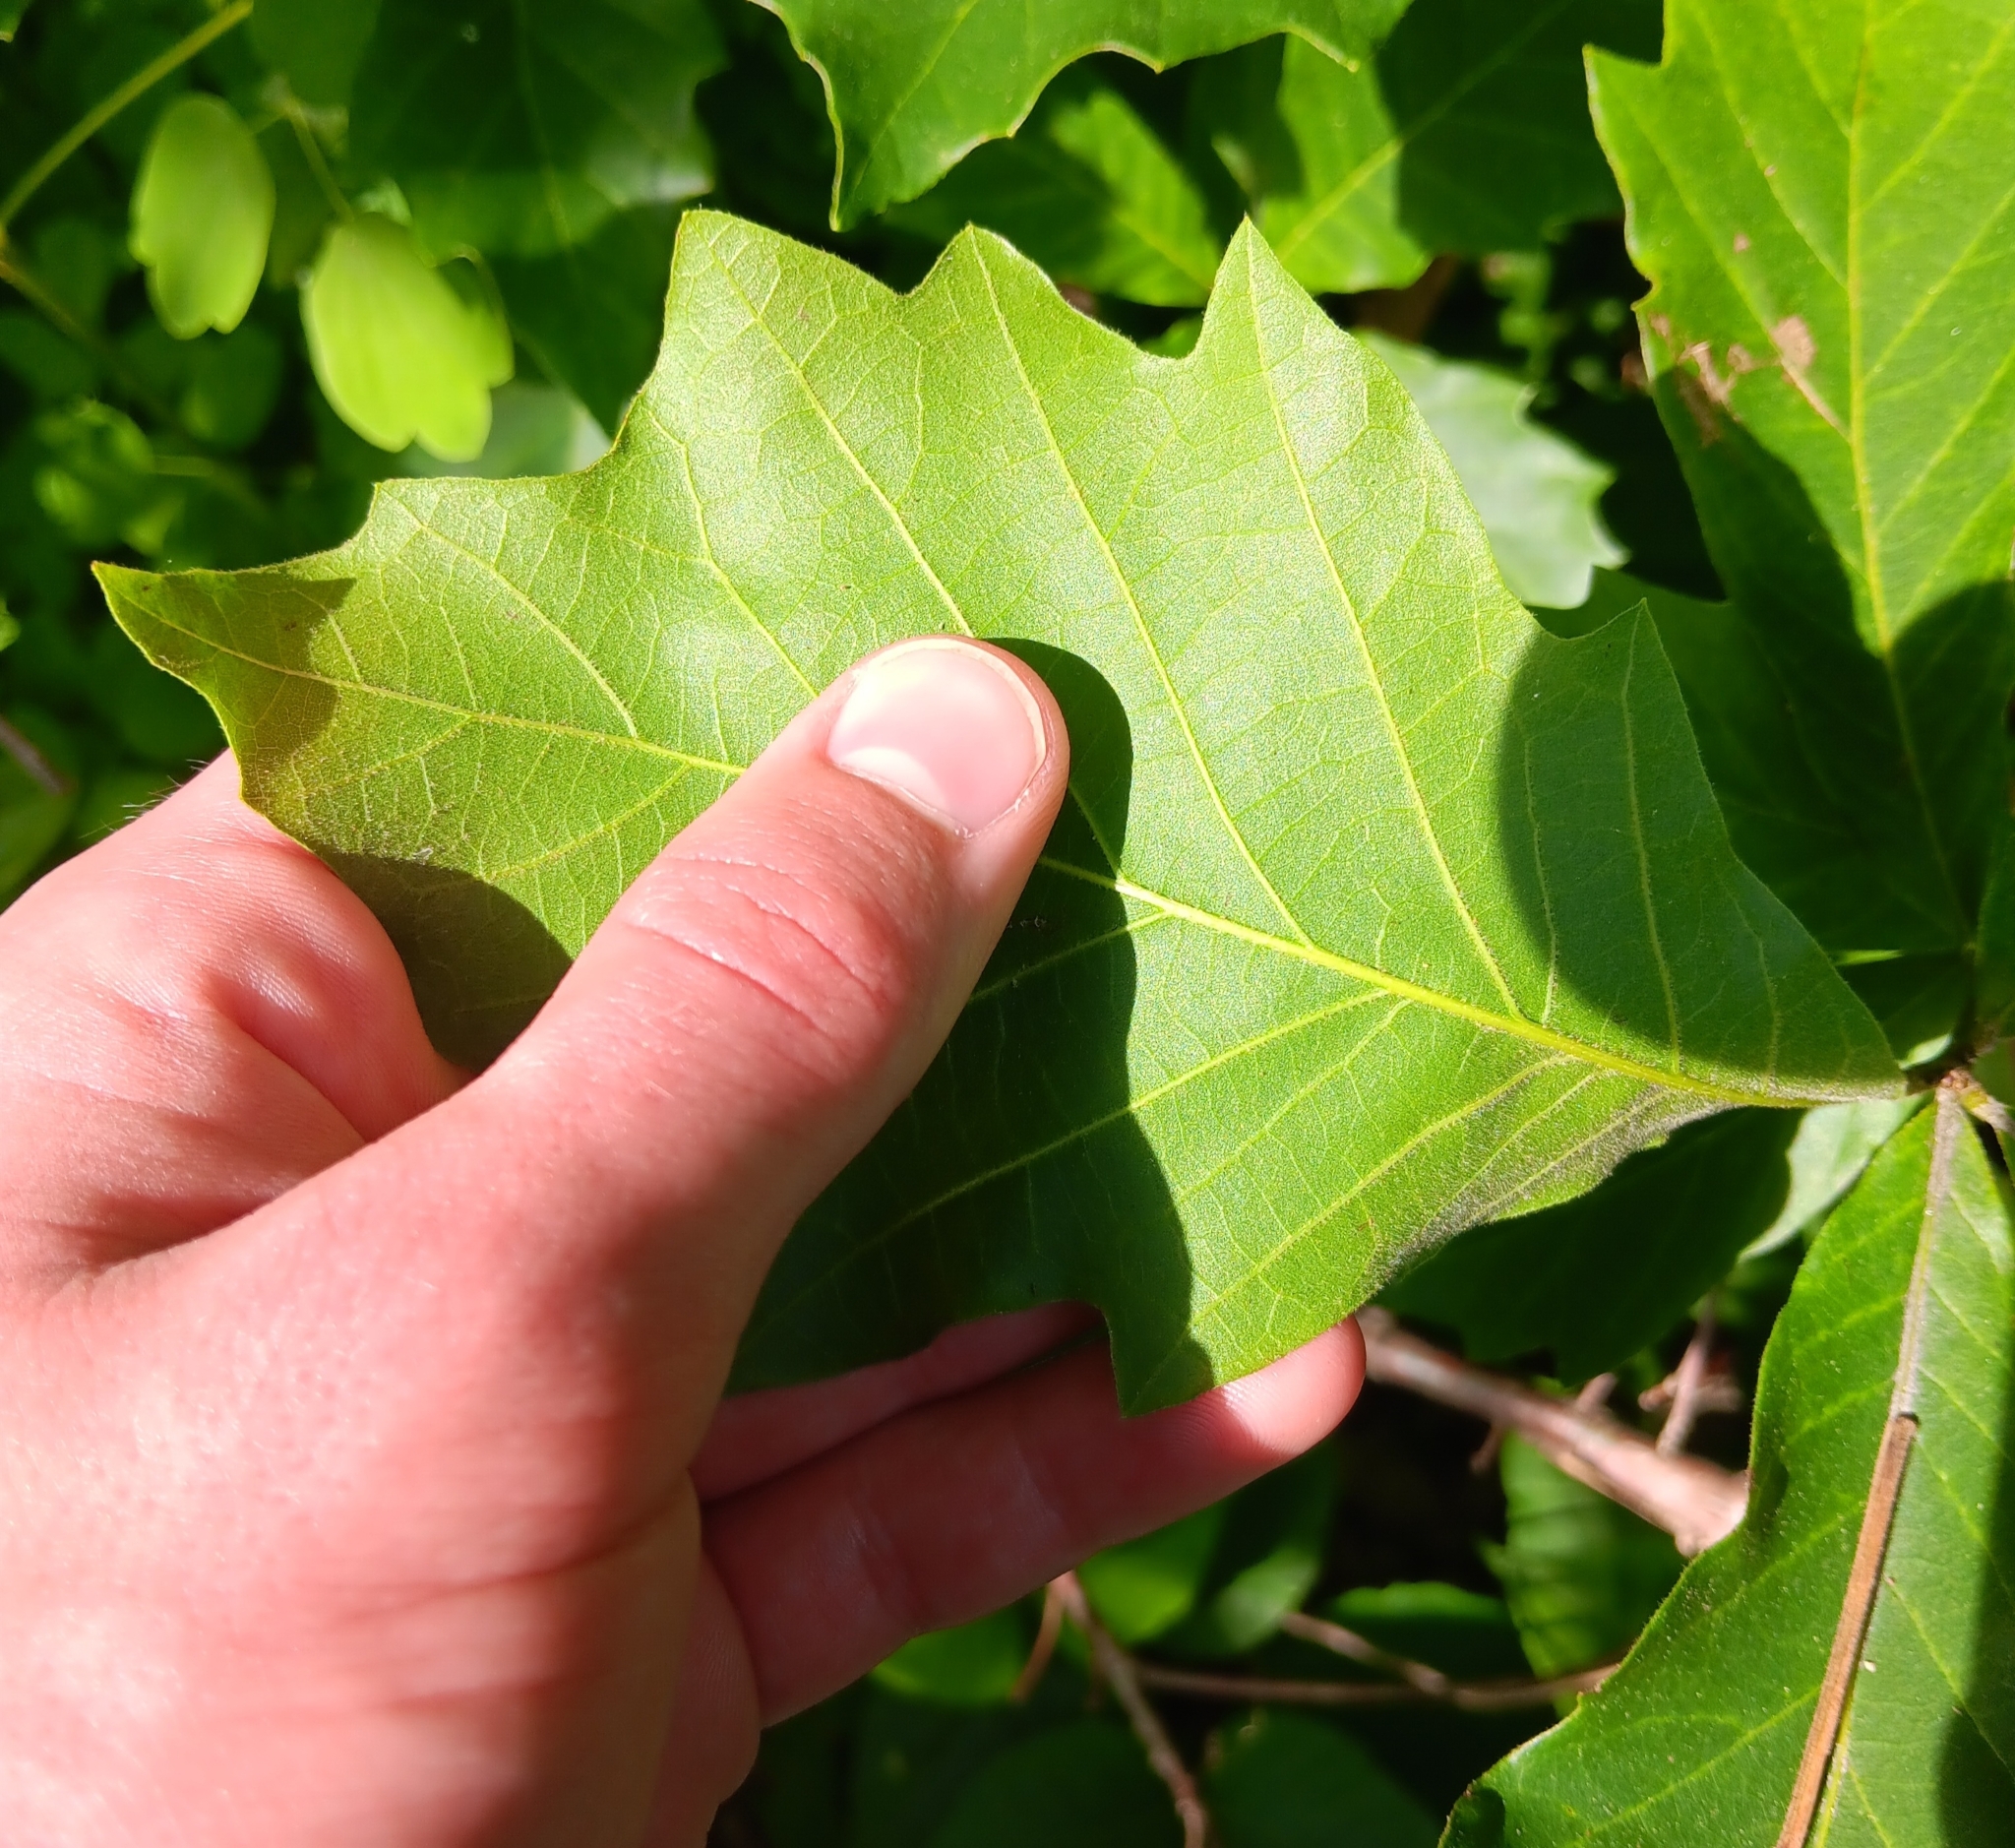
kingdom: Plantae
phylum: Tracheophyta
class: Magnoliopsida
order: Fagales
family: Fagaceae
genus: Quercus
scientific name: Quercus bicolor
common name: Swamp white oak
